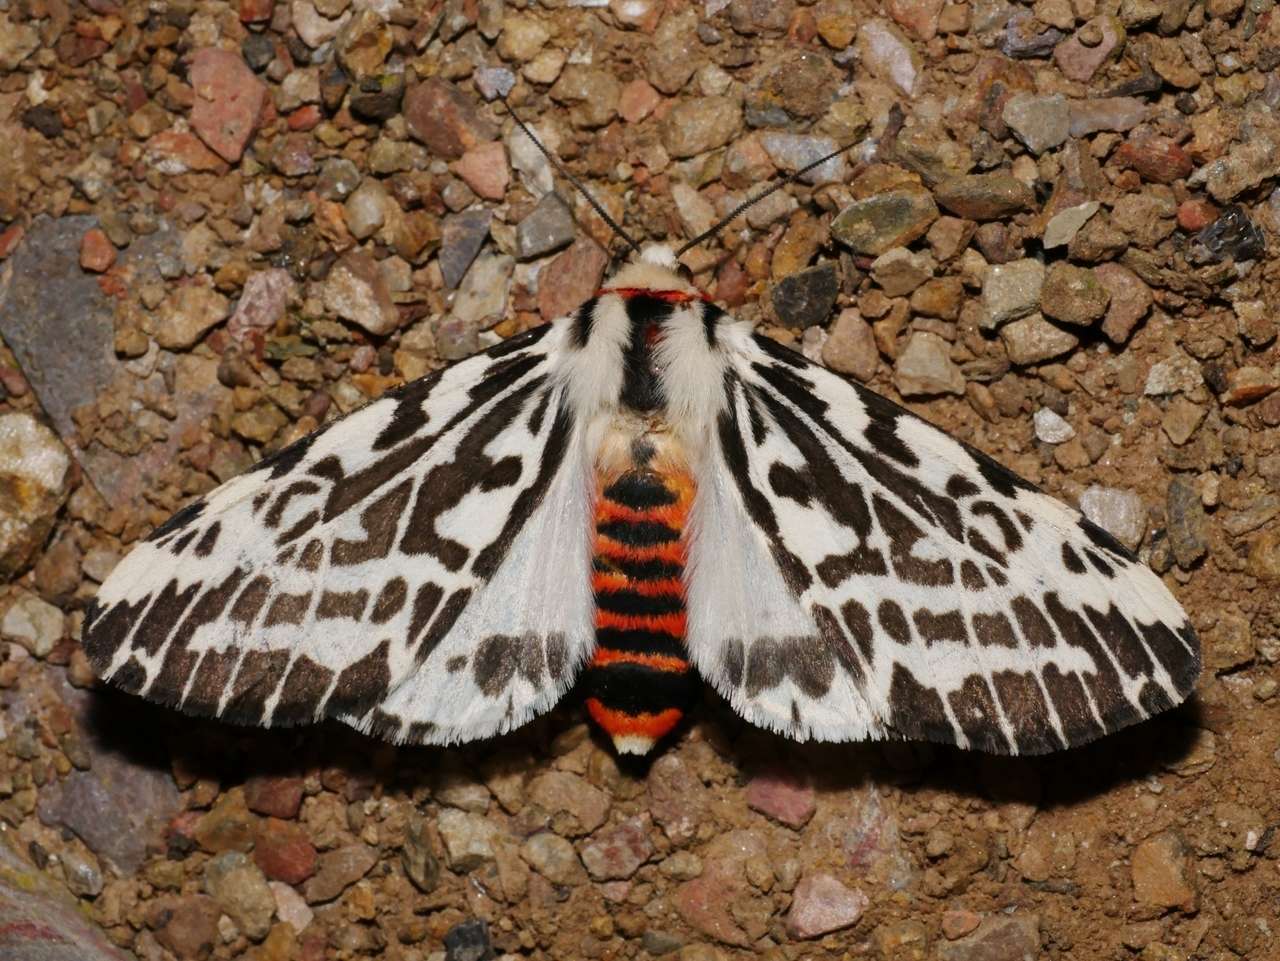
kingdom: Animalia
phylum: Arthropoda
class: Insecta
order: Lepidoptera
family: Erebidae
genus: Ardices
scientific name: Ardices glatignyi
